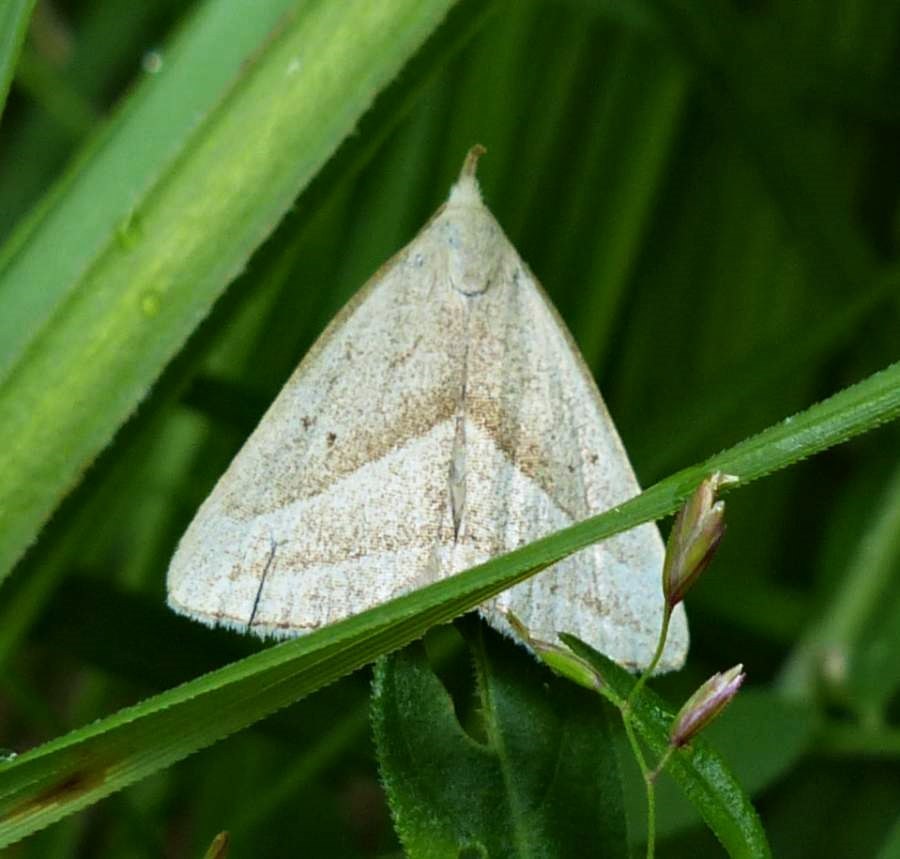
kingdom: Animalia
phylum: Arthropoda
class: Insecta
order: Lepidoptera
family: Erebidae
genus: Macrochilo
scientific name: Macrochilo absorptalis
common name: Slant-lined owlet
